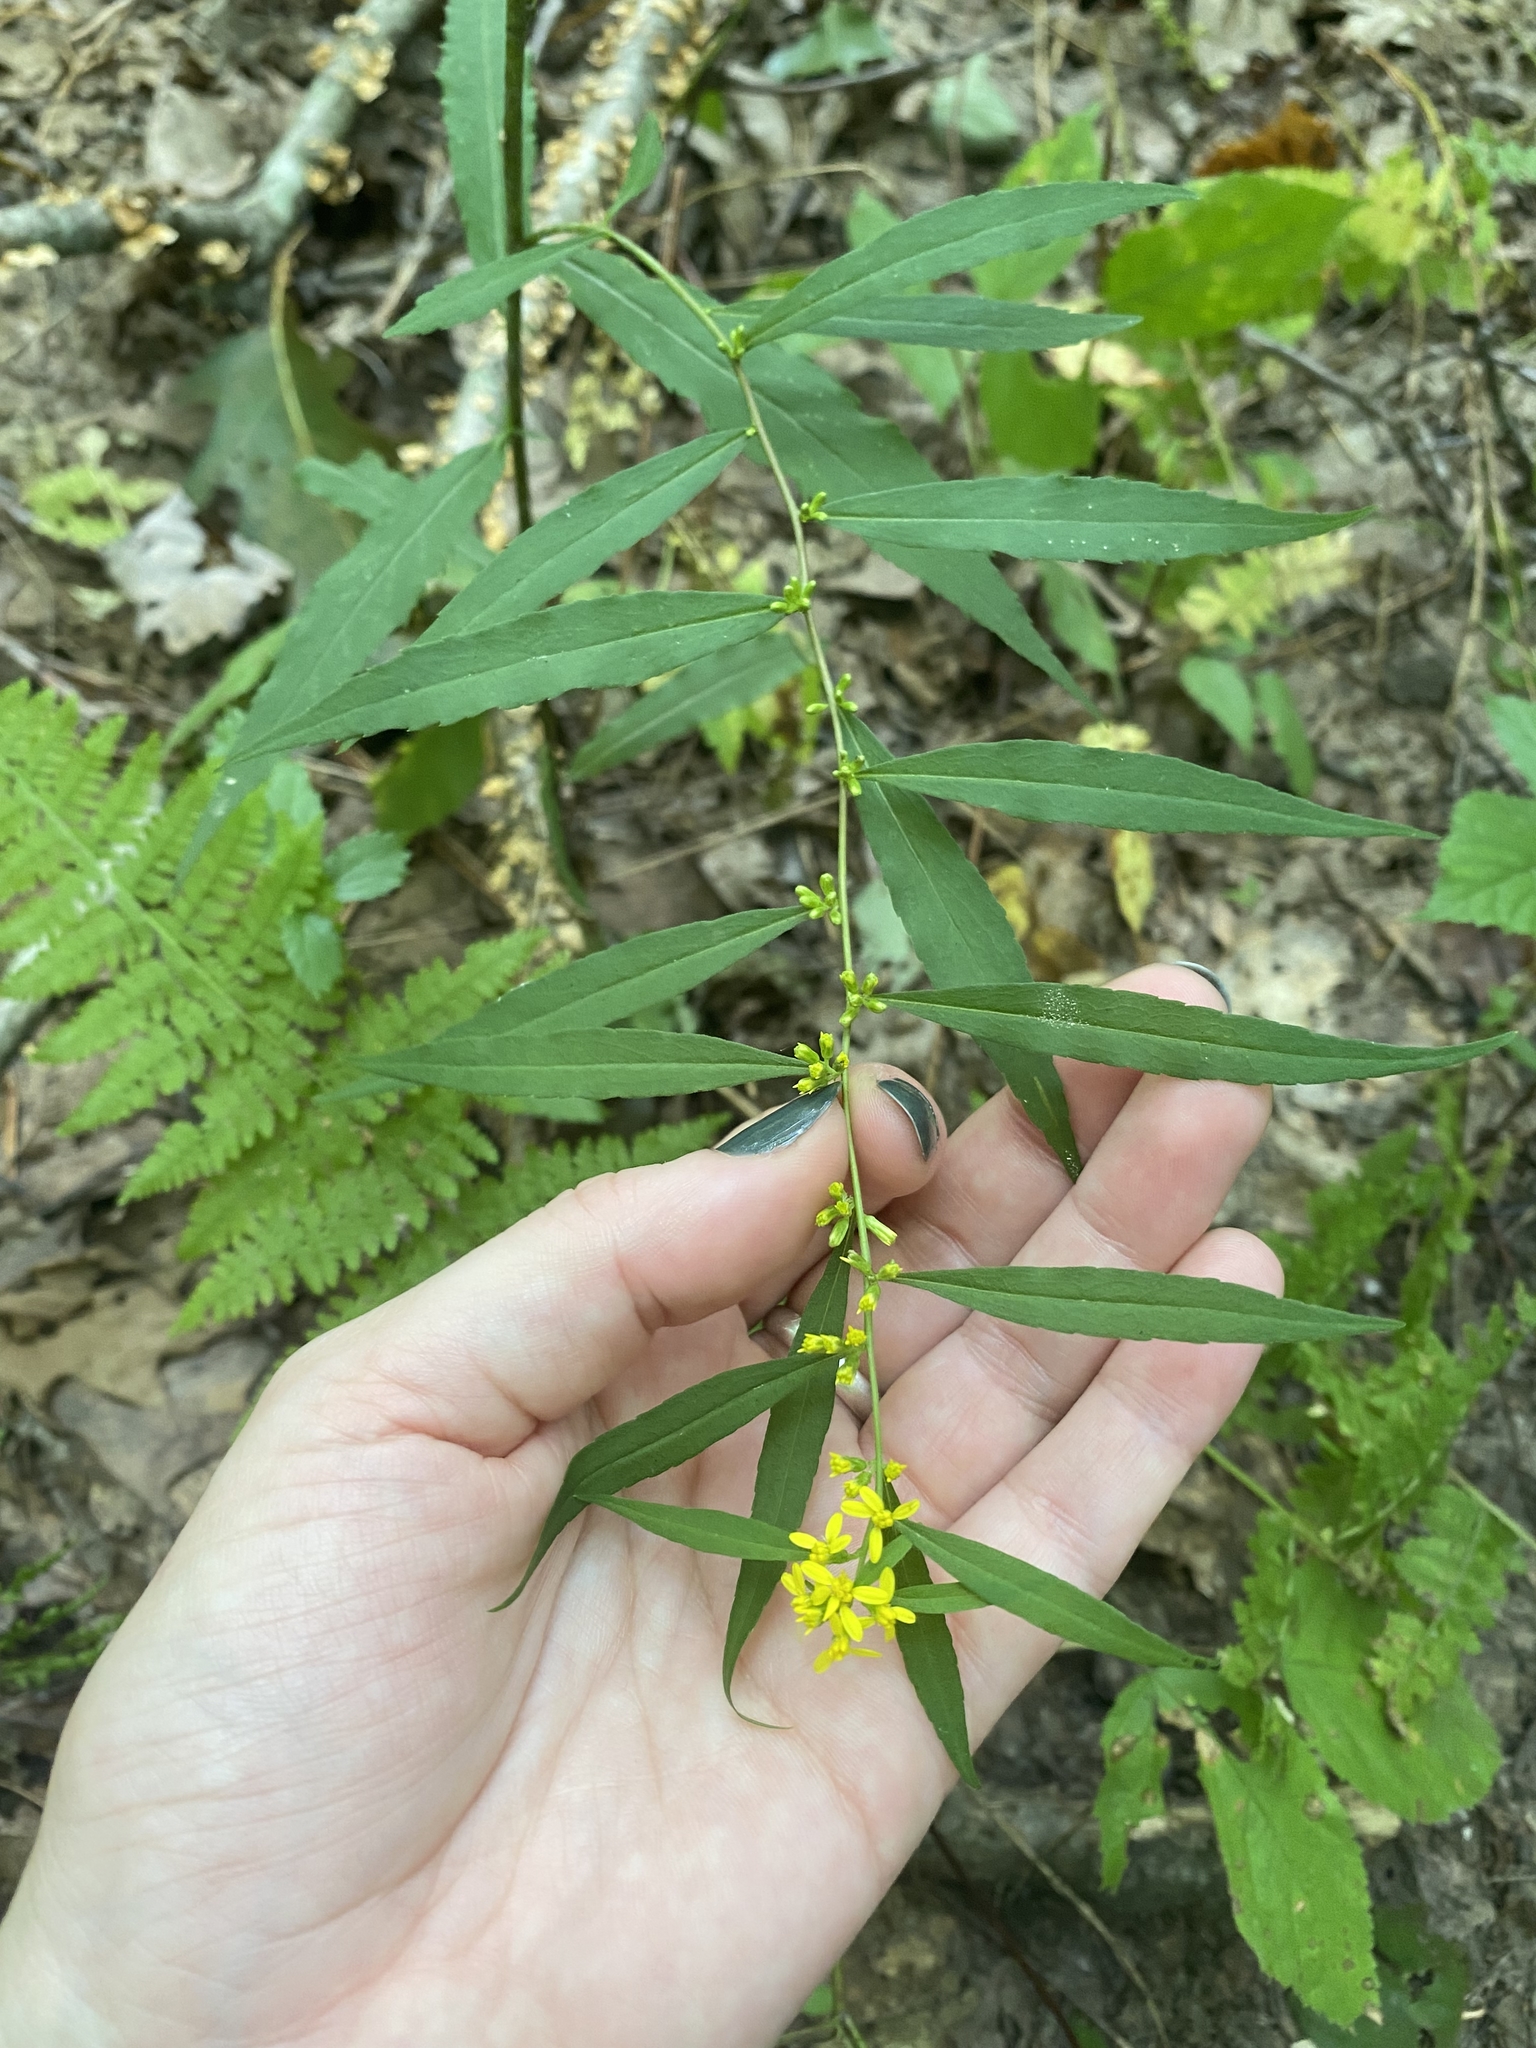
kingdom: Plantae
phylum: Tracheophyta
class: Magnoliopsida
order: Asterales
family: Asteraceae
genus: Solidago
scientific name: Solidago caesia
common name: Woodland goldenrod
